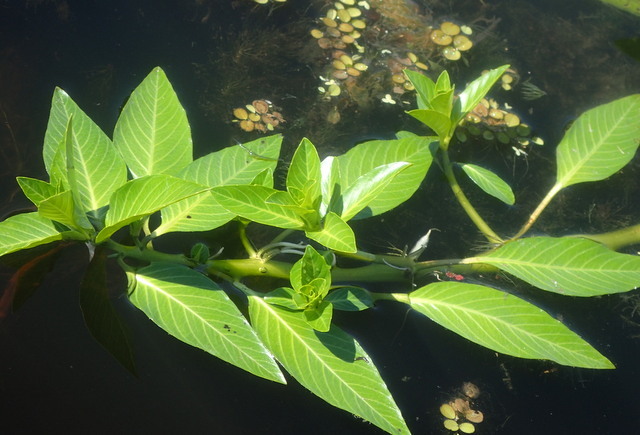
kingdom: Plantae
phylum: Tracheophyta
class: Magnoliopsida
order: Myrtales
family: Onagraceae
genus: Ludwigia
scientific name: Ludwigia peruviana
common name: Peruvian primrose-willow
